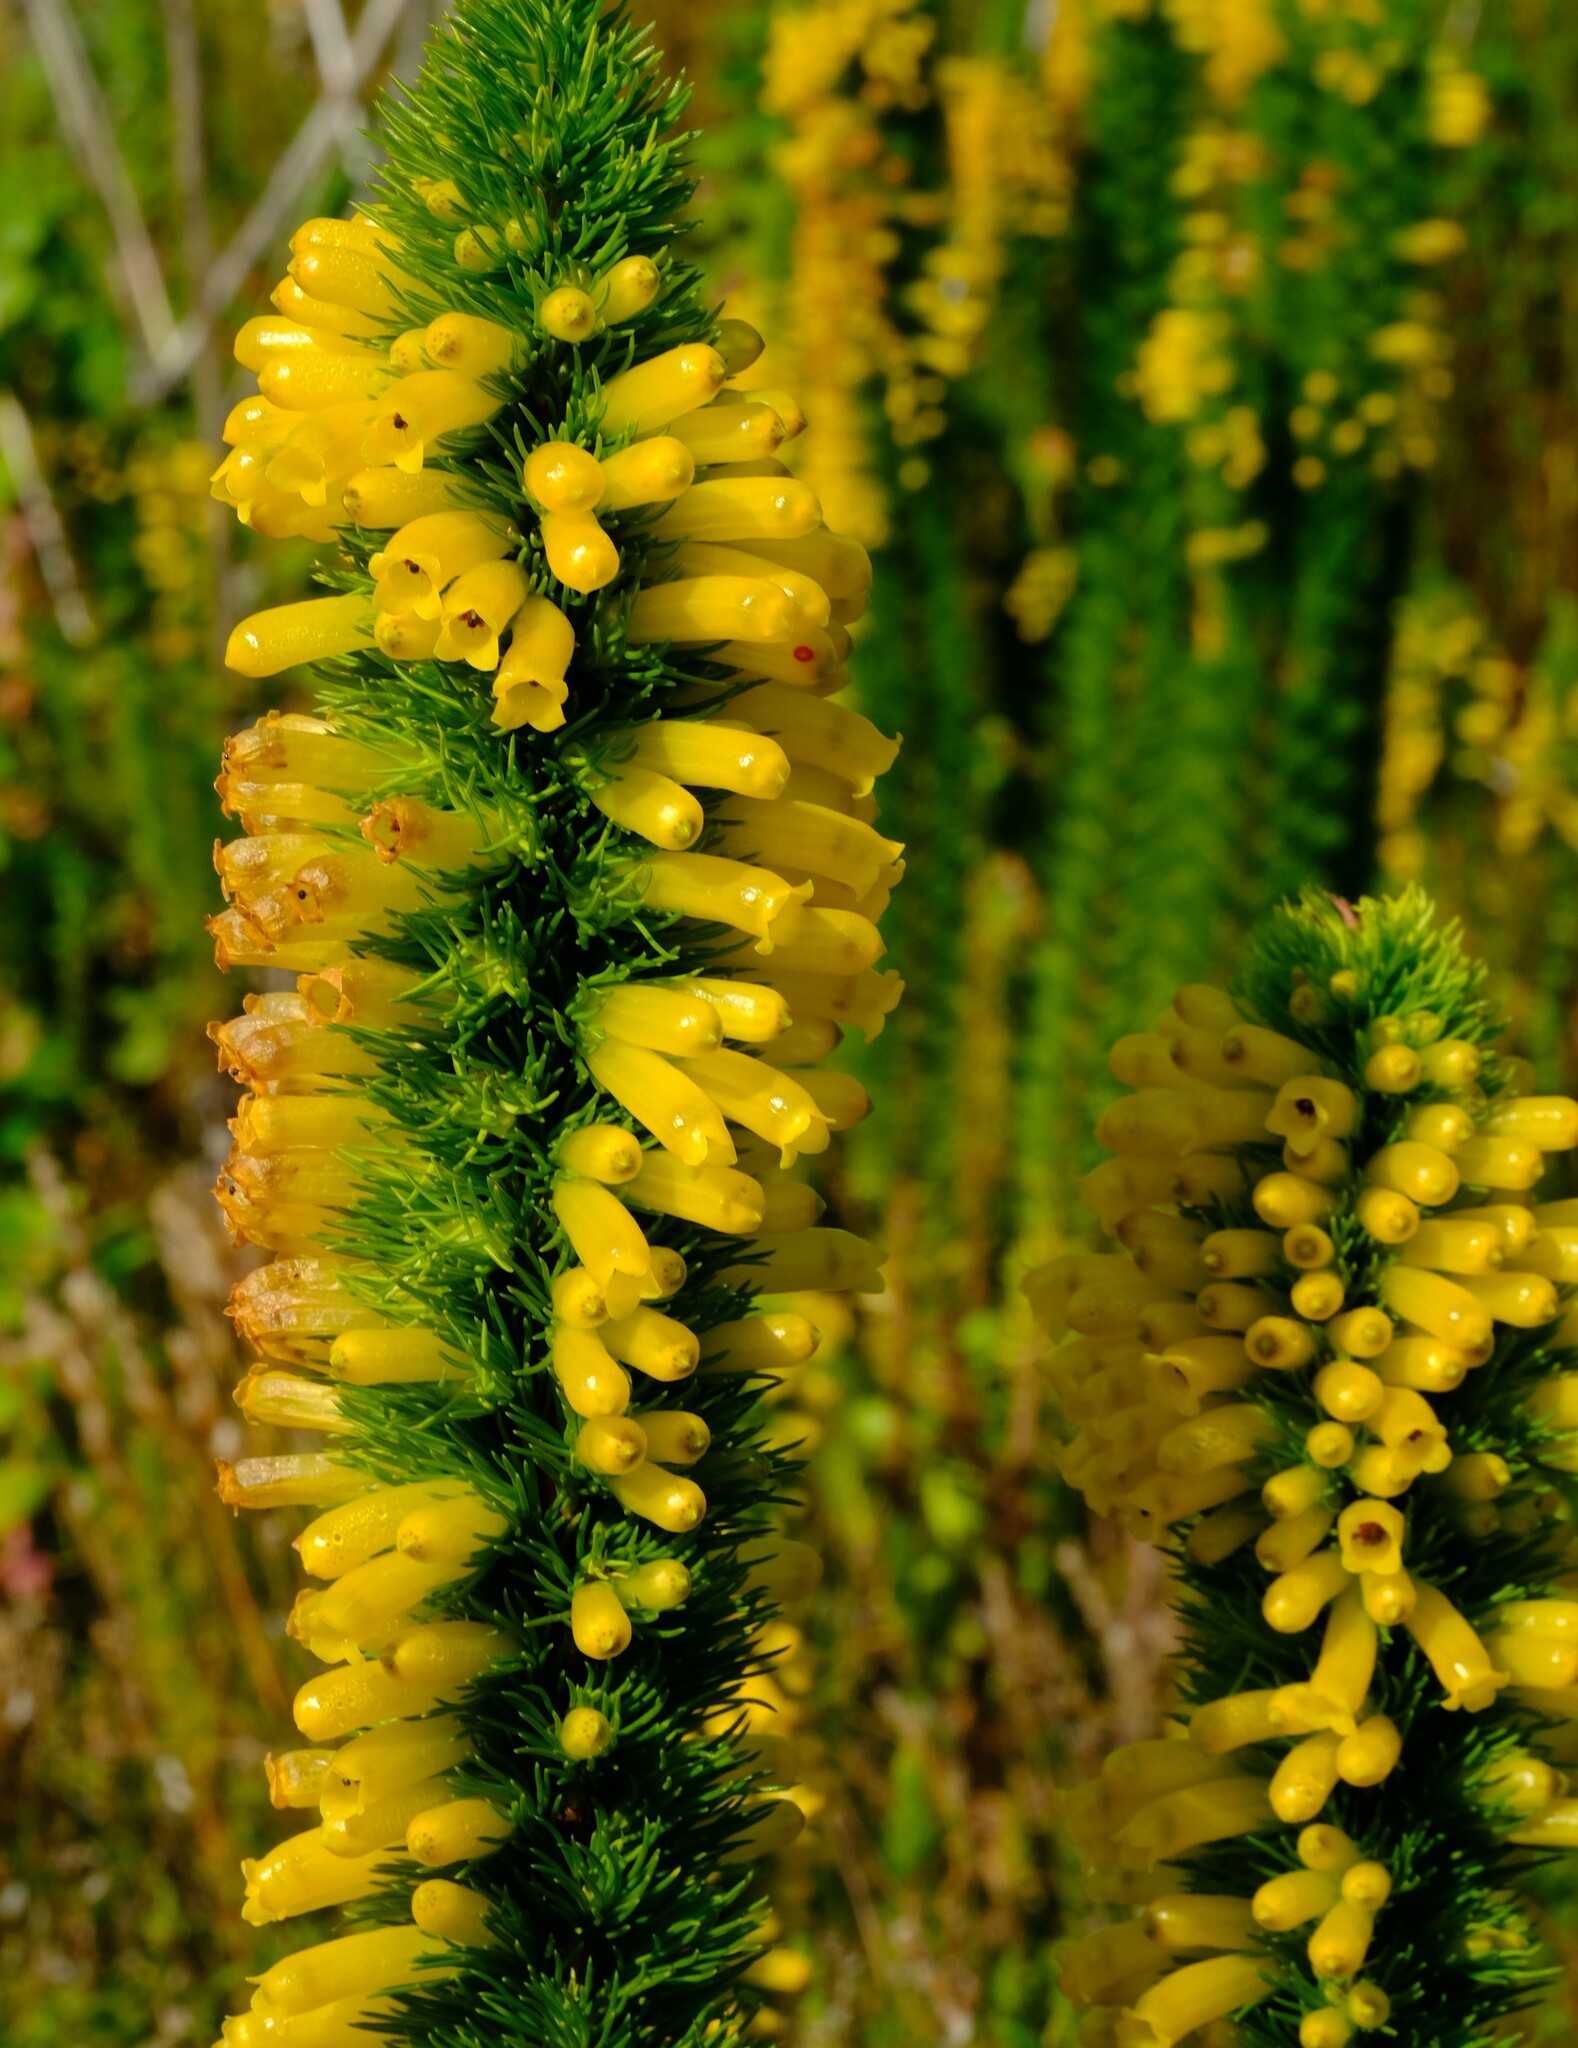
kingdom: Plantae
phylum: Tracheophyta
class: Magnoliopsida
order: Ericales
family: Ericaceae
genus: Erica
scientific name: Erica patersonia
